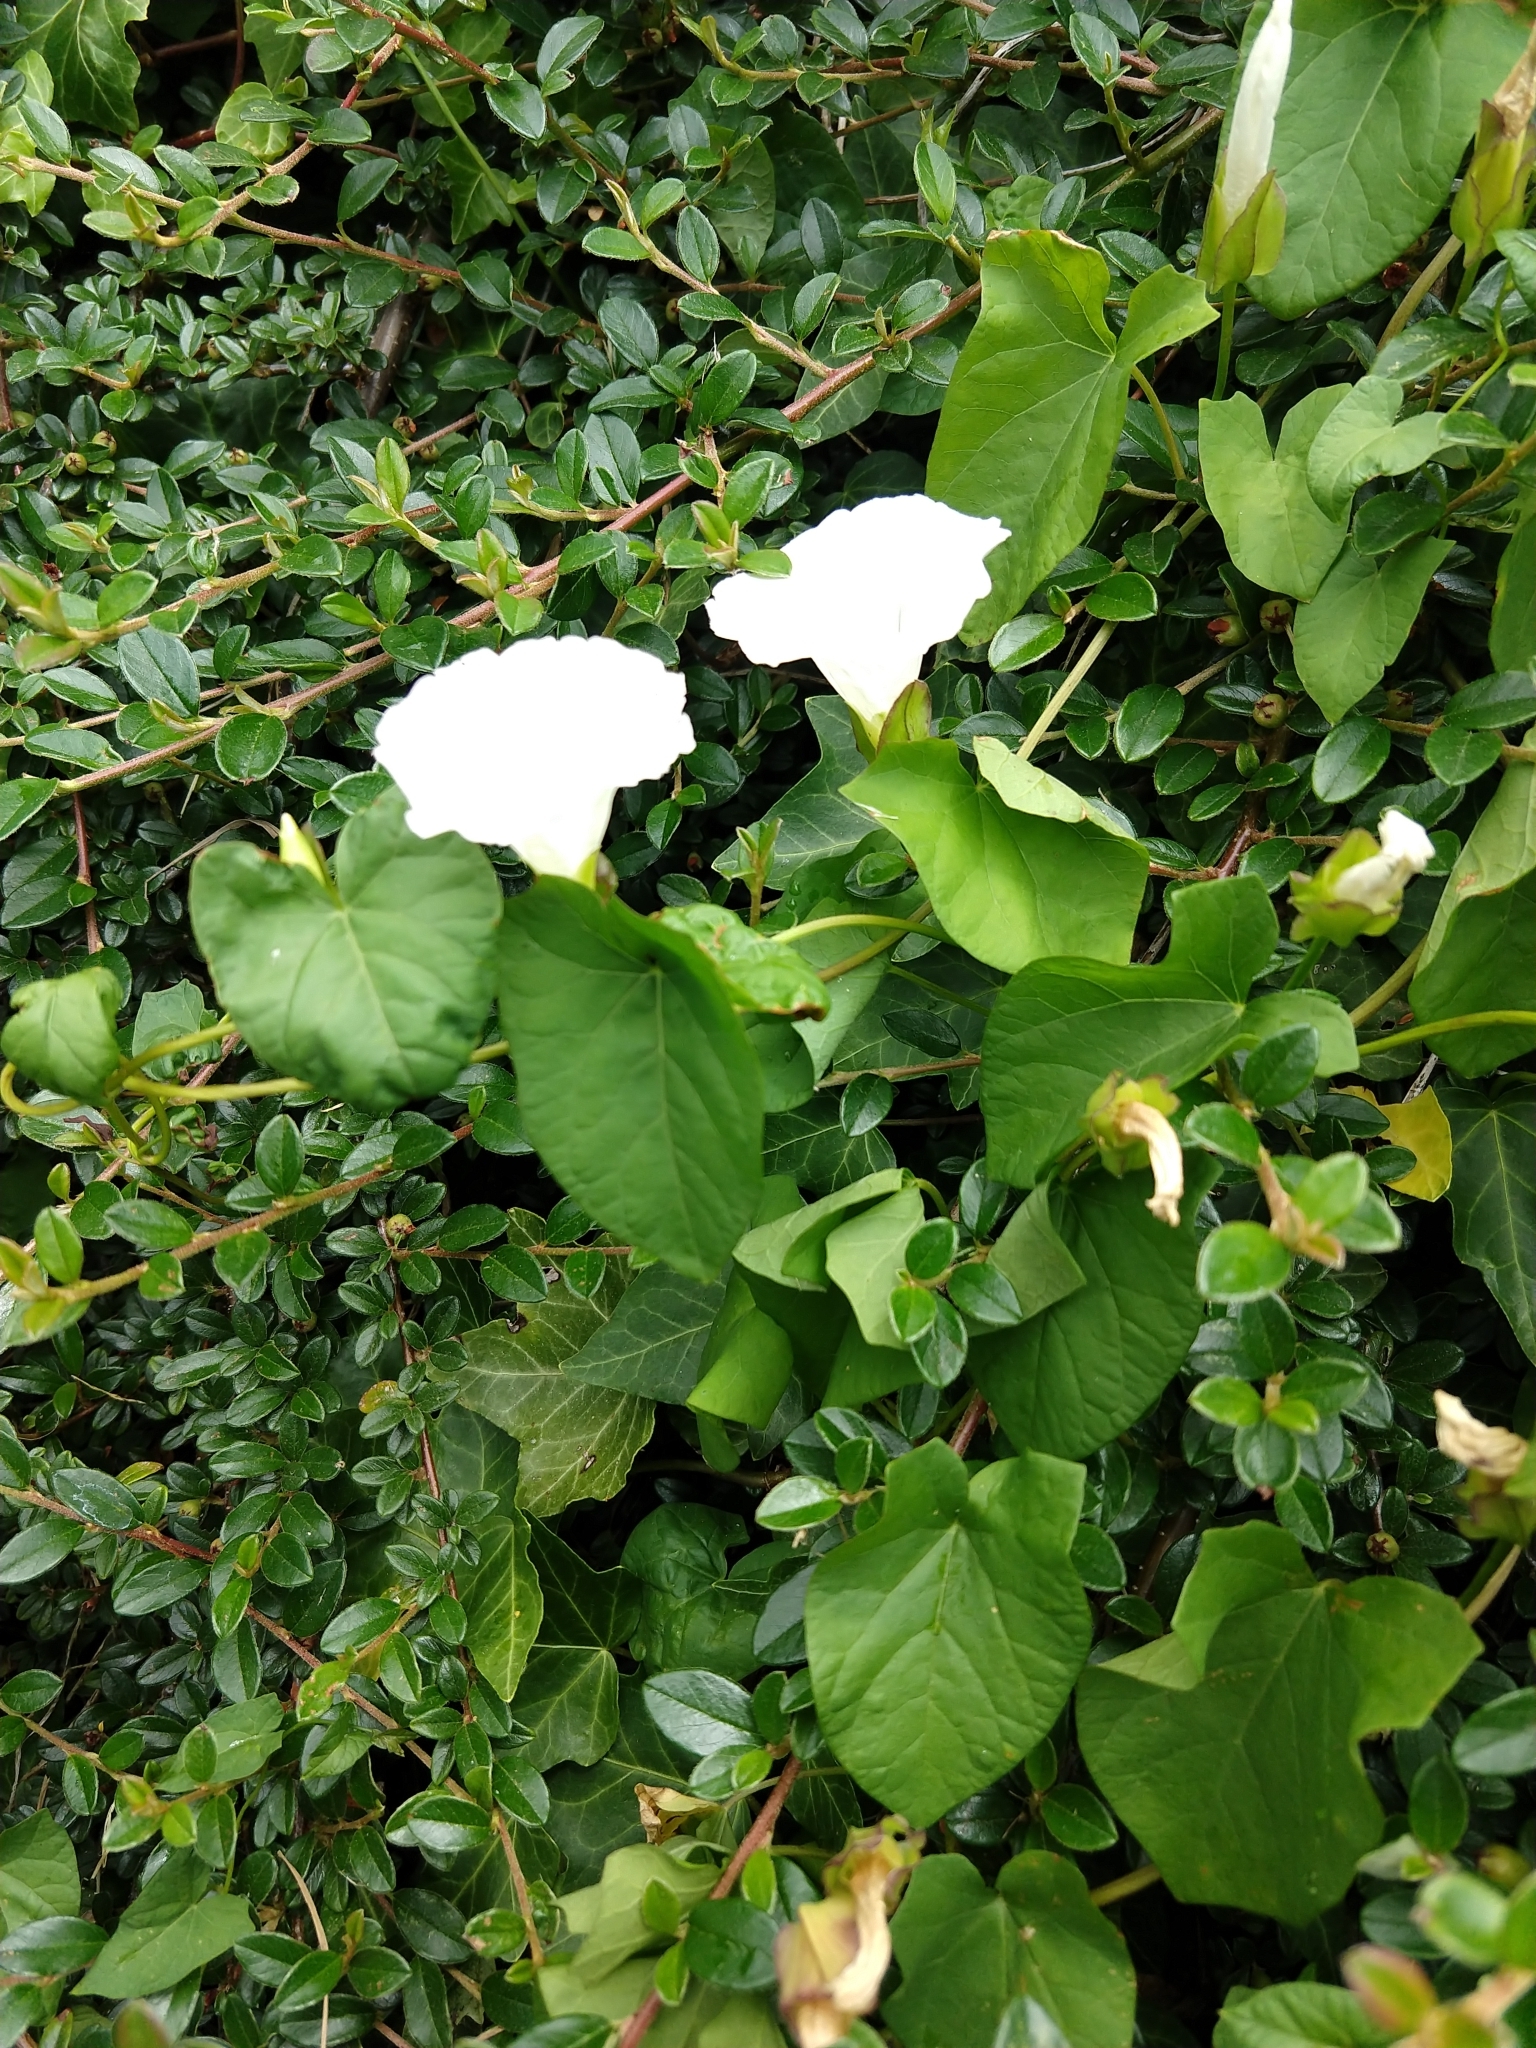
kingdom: Plantae
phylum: Tracheophyta
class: Magnoliopsida
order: Solanales
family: Convolvulaceae
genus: Calystegia
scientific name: Calystegia sepium
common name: Hedge bindweed
